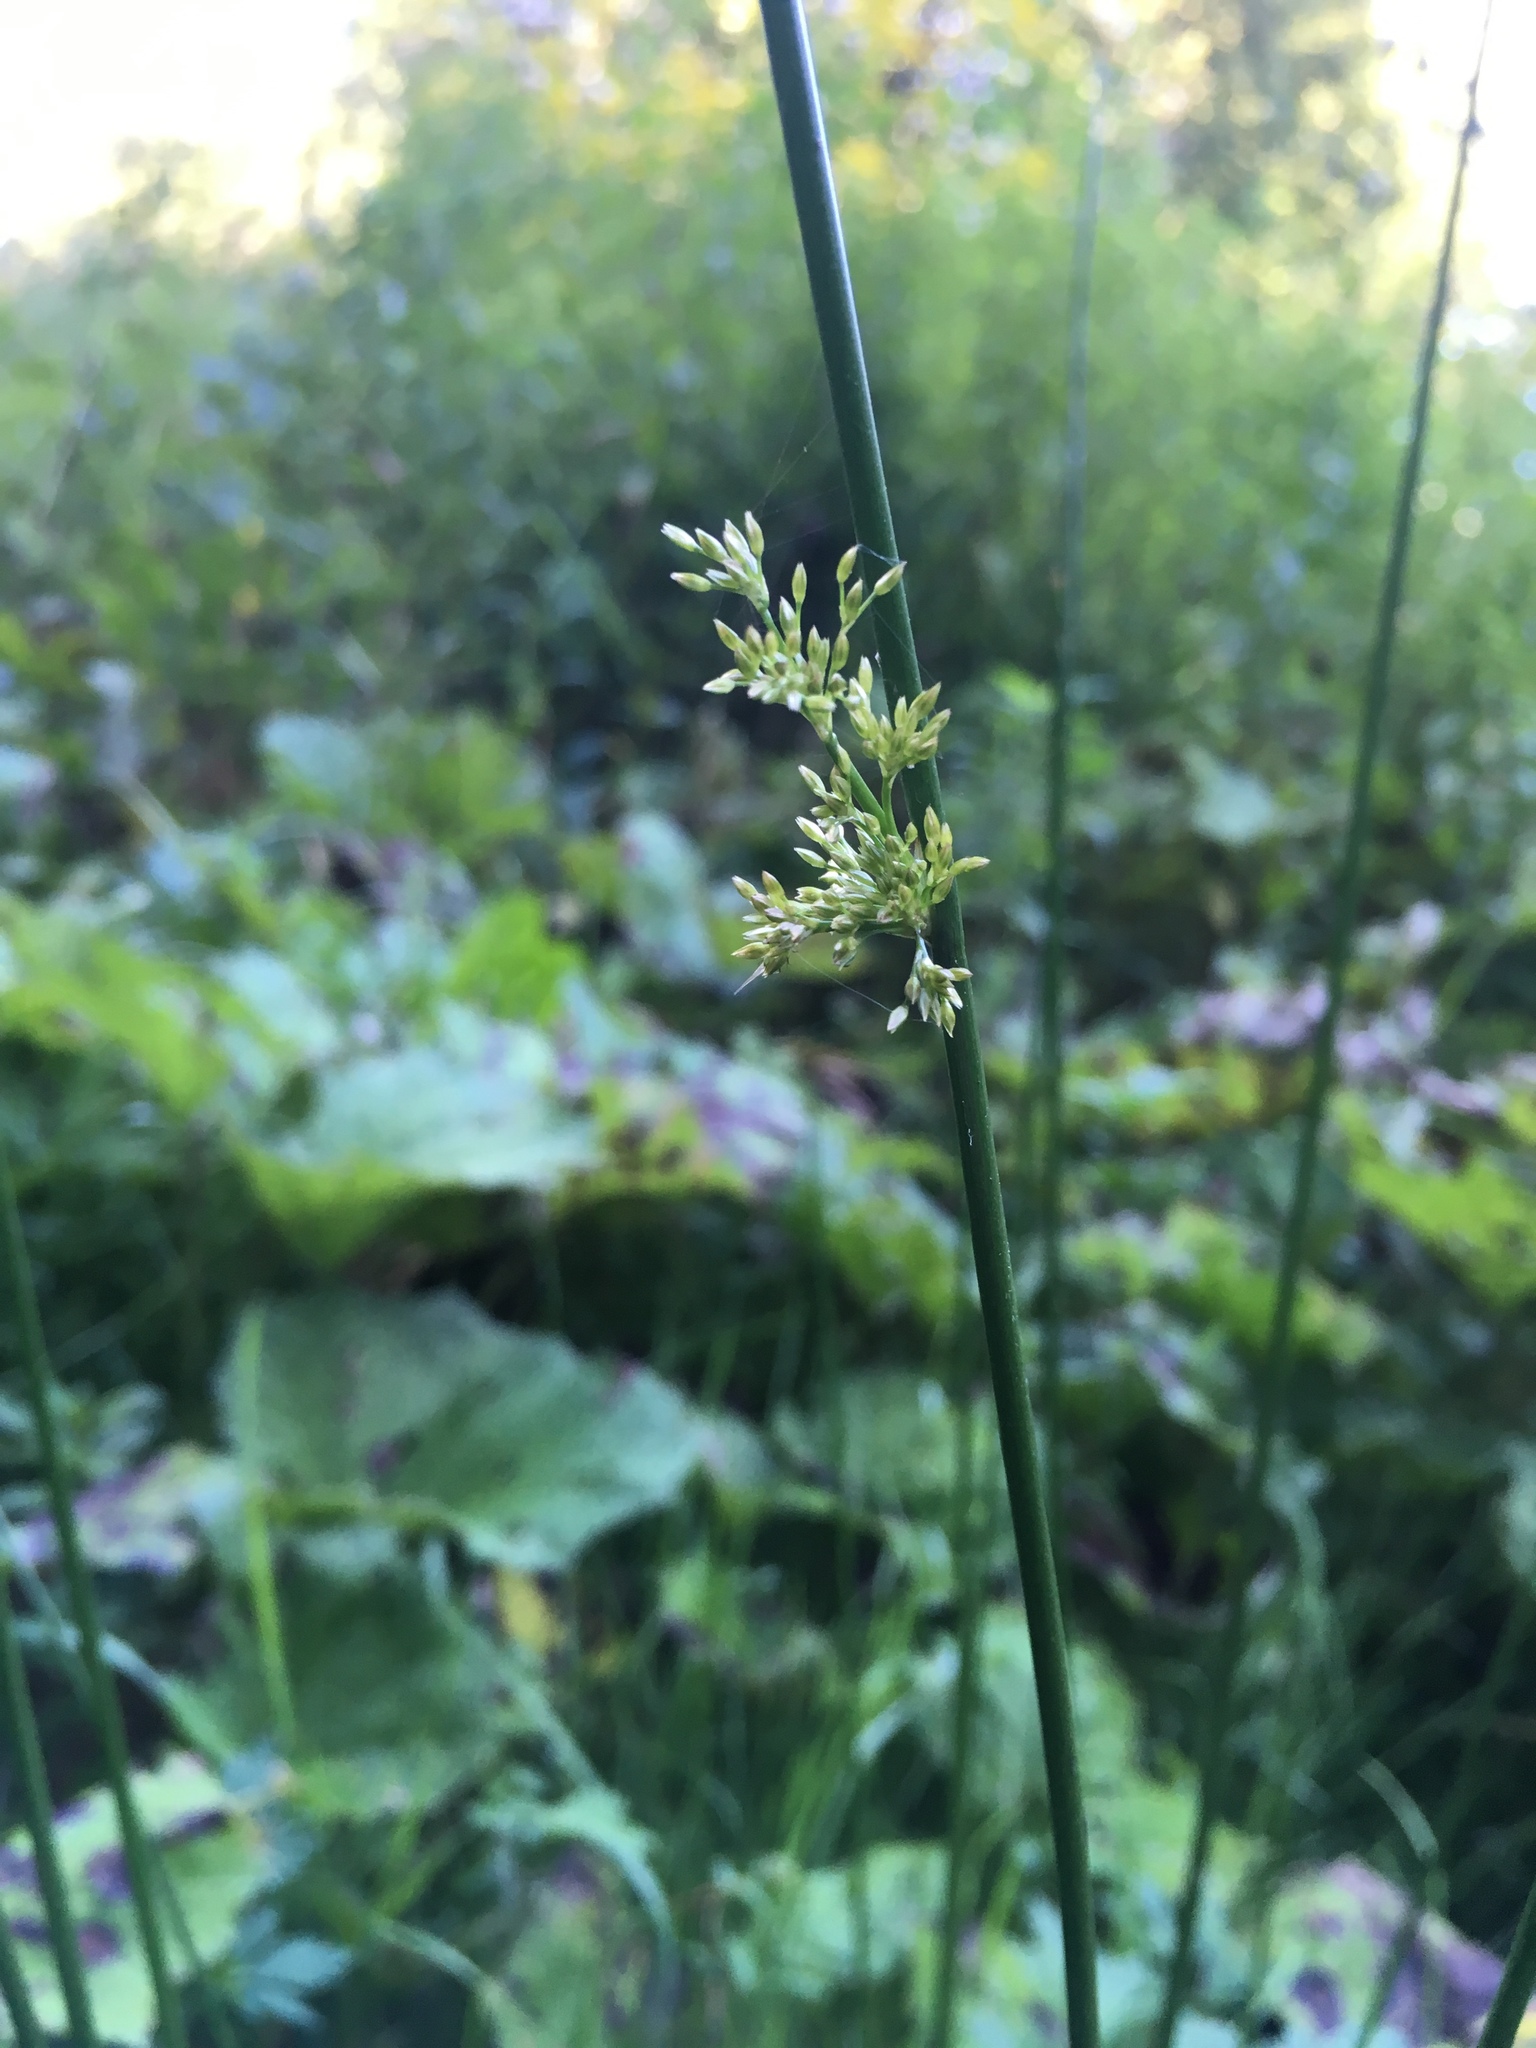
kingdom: Plantae
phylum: Tracheophyta
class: Liliopsida
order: Poales
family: Juncaceae
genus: Juncus
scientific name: Juncus effusus
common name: Soft rush
